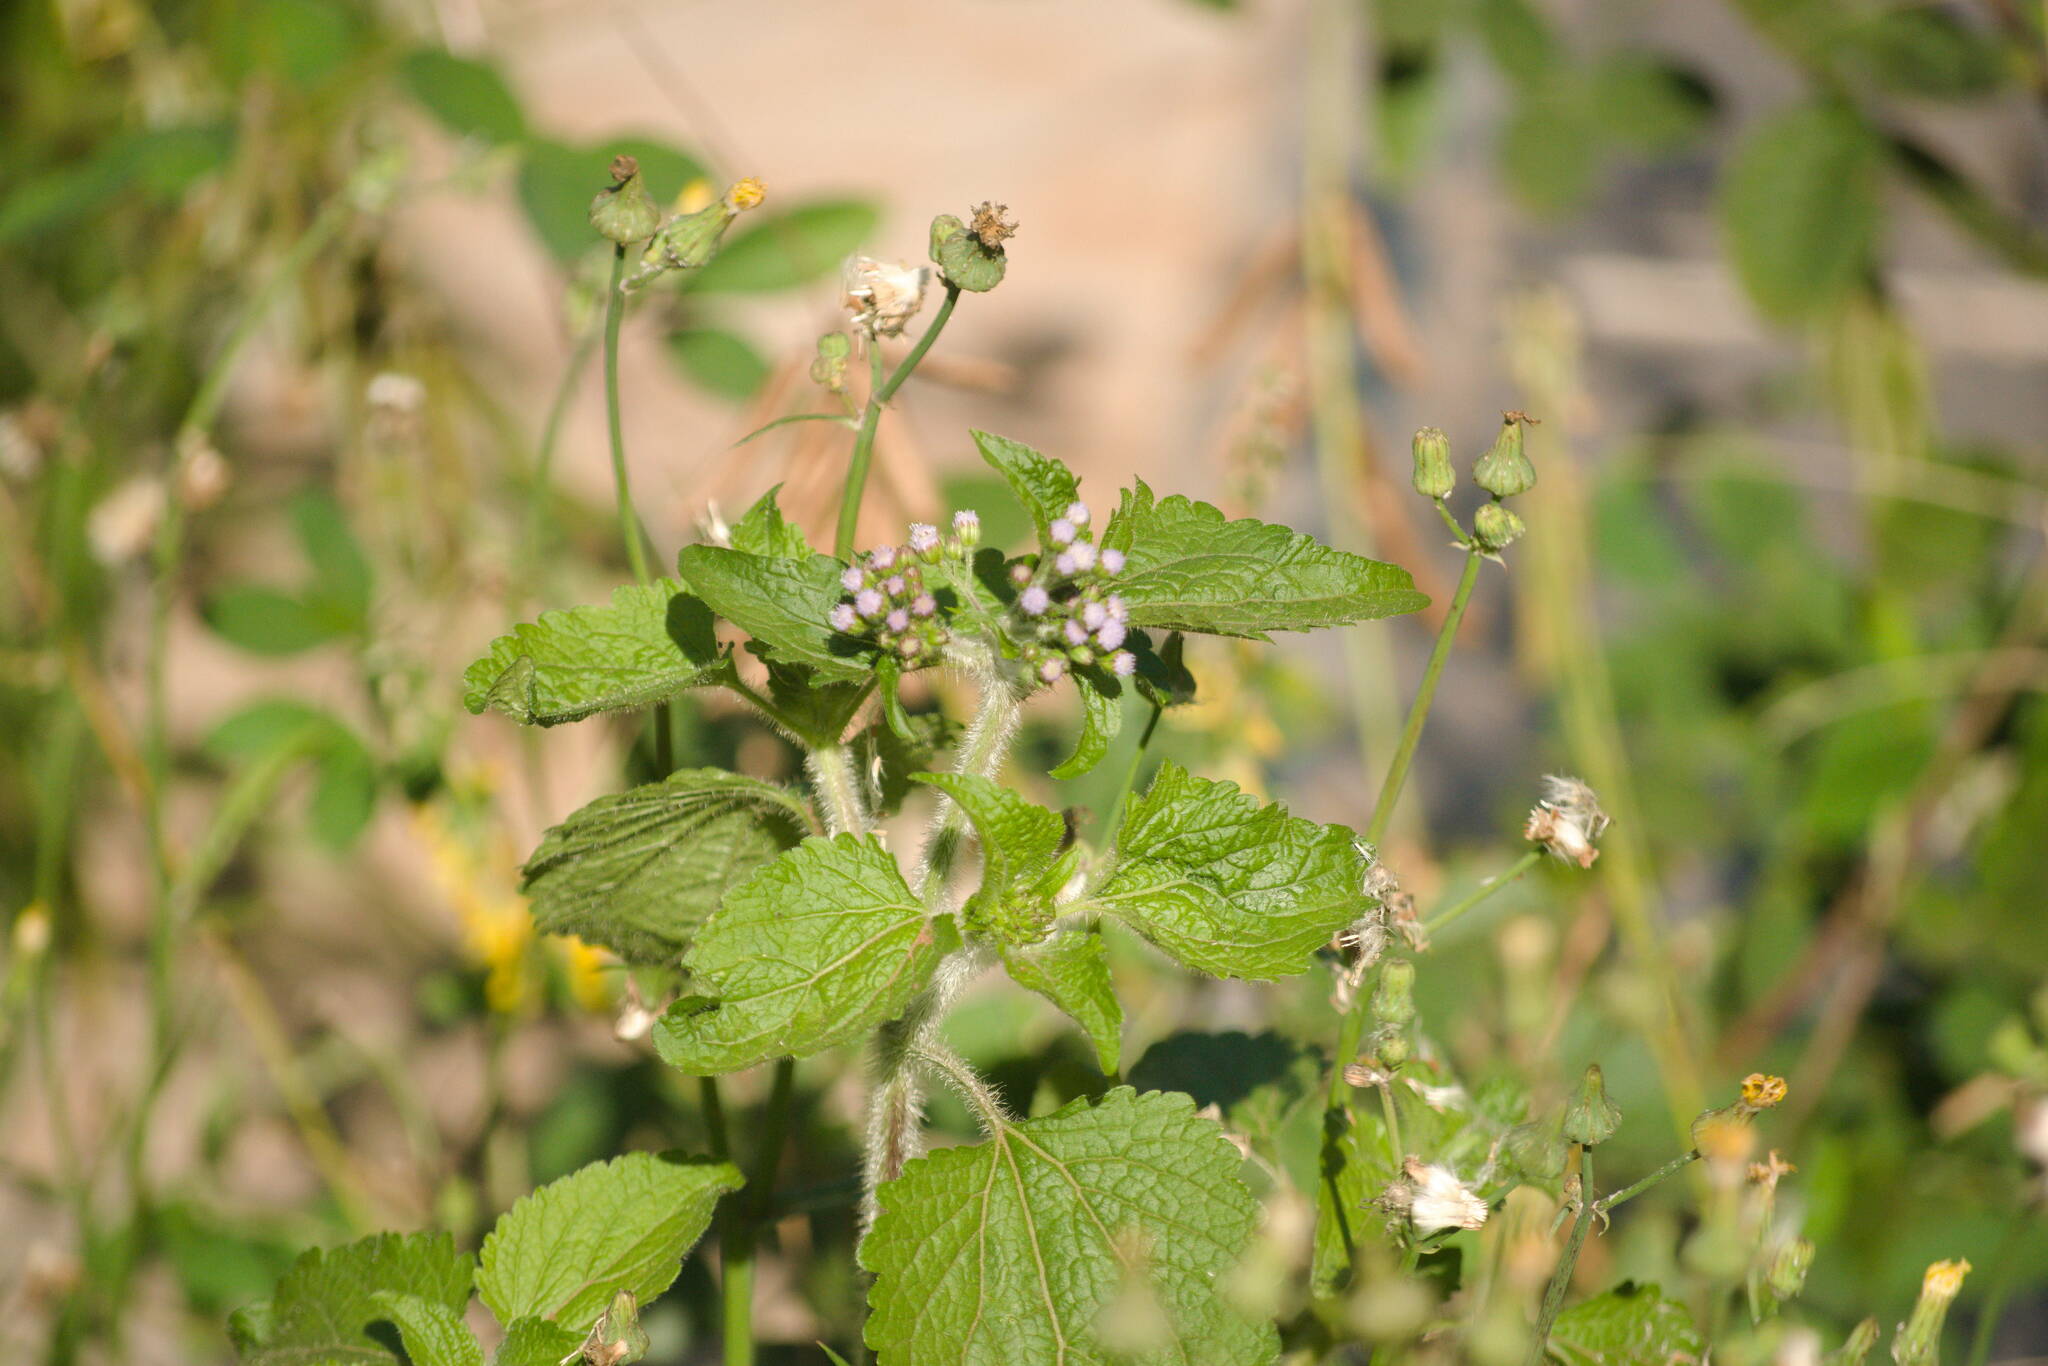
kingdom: Plantae
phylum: Tracheophyta
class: Magnoliopsida
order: Asterales
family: Asteraceae
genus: Ageratum
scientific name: Ageratum conyzoides
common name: Tropical whiteweed
